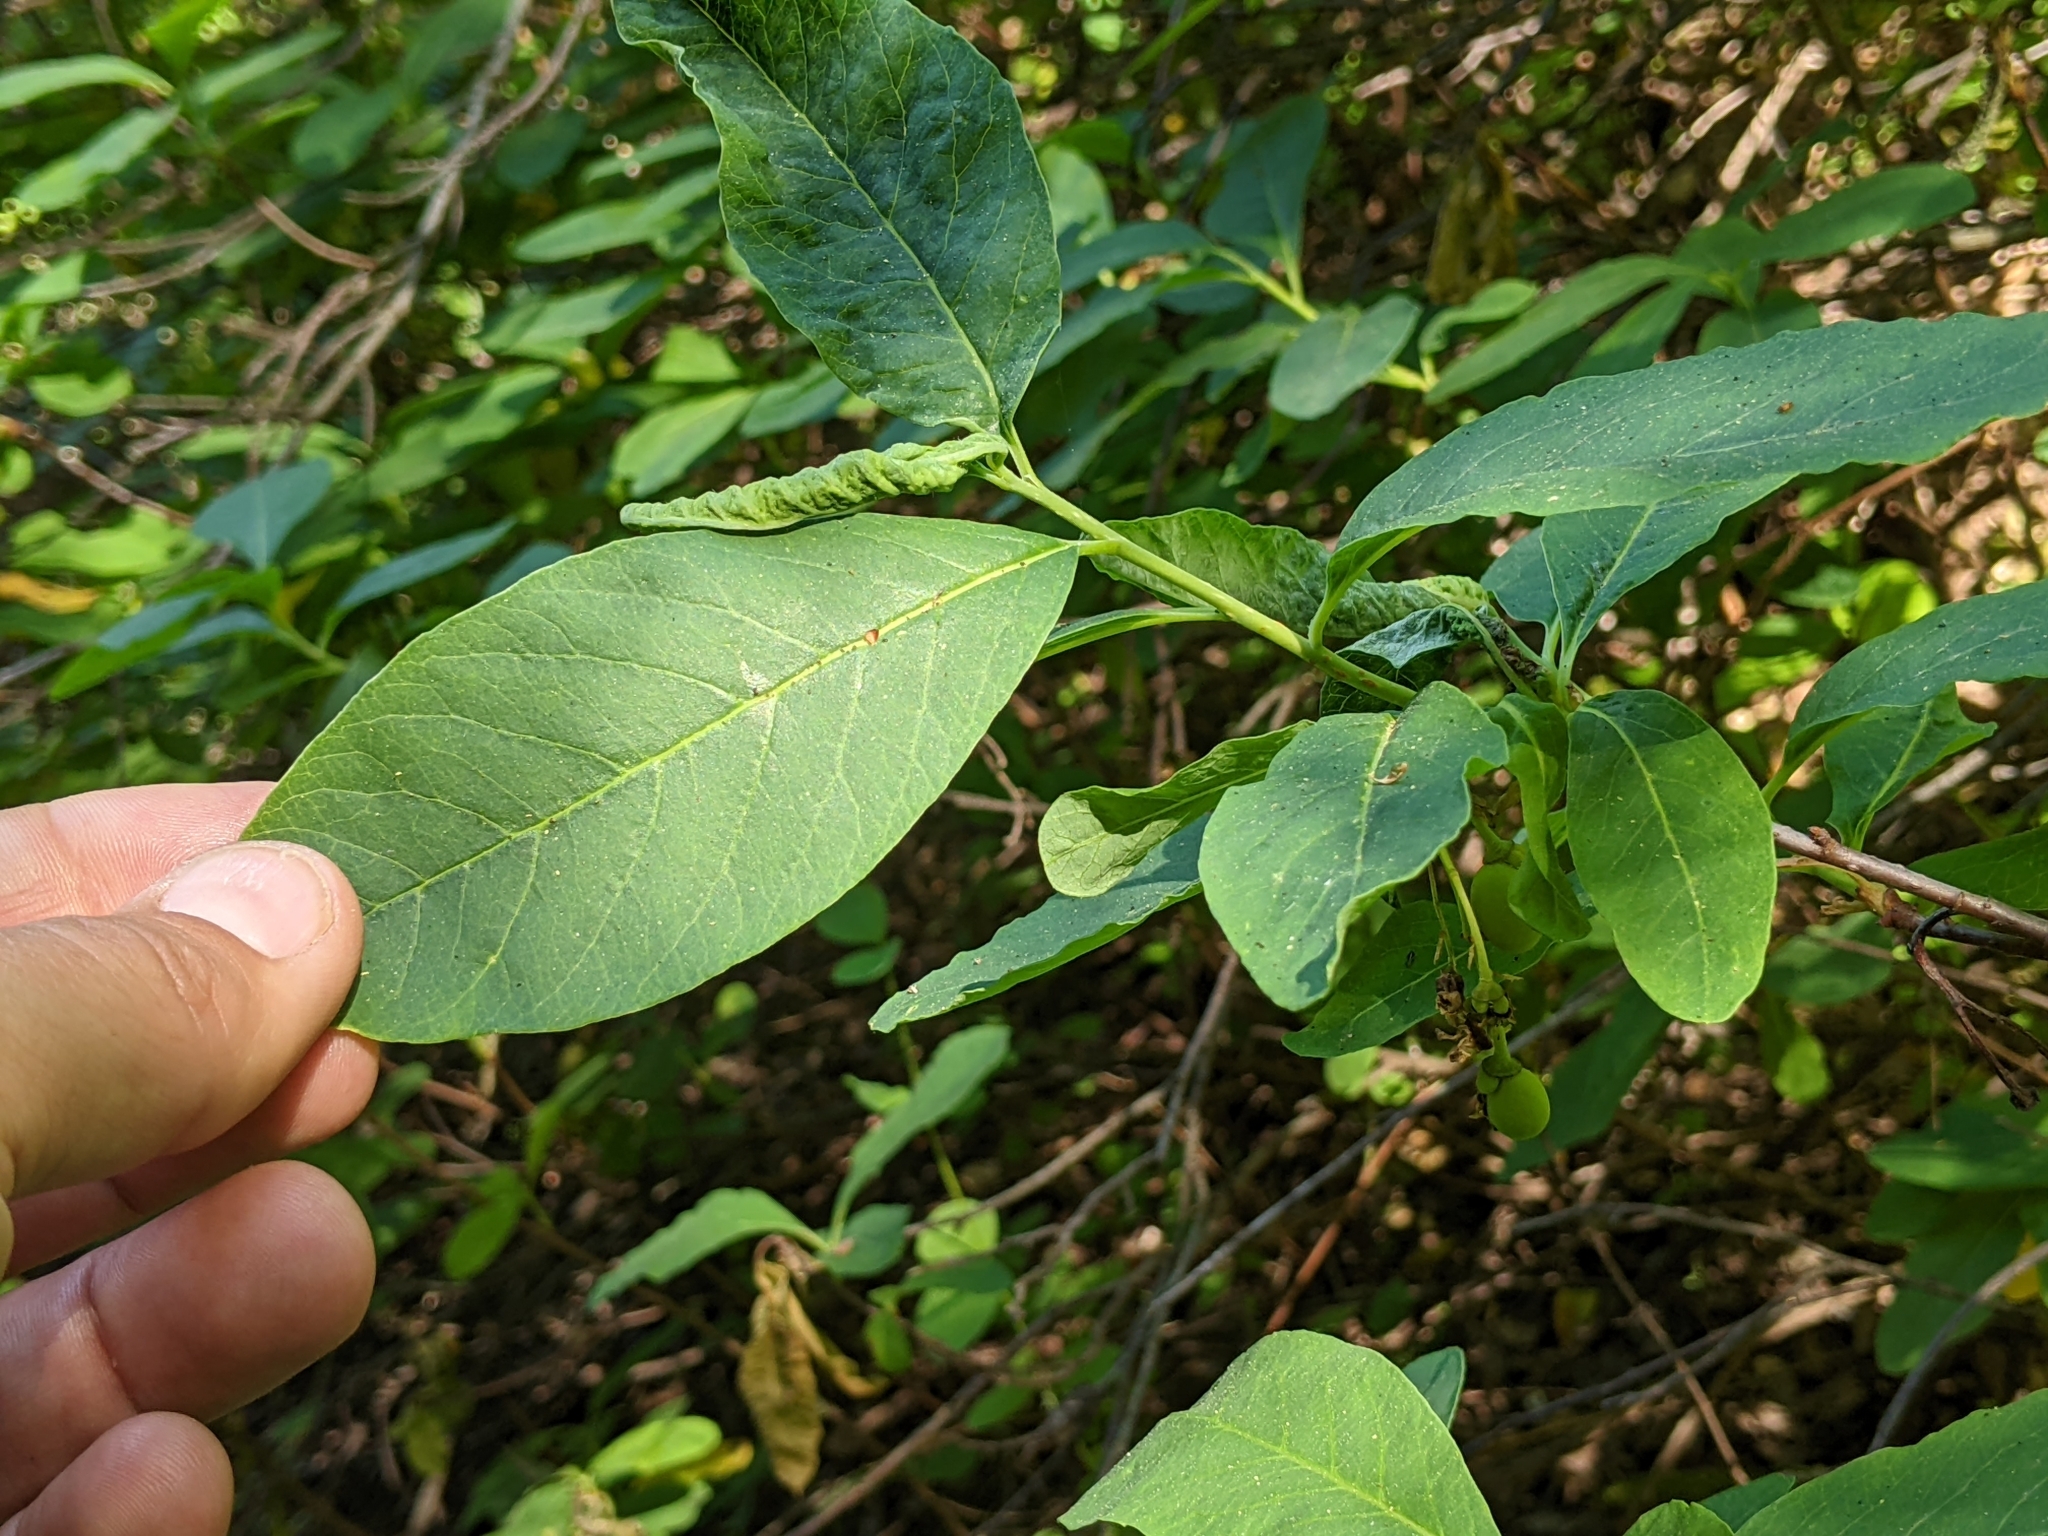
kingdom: Animalia
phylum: Arthropoda
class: Insecta
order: Diptera
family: Cecidomyiidae
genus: Dasineura
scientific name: Dasineura
